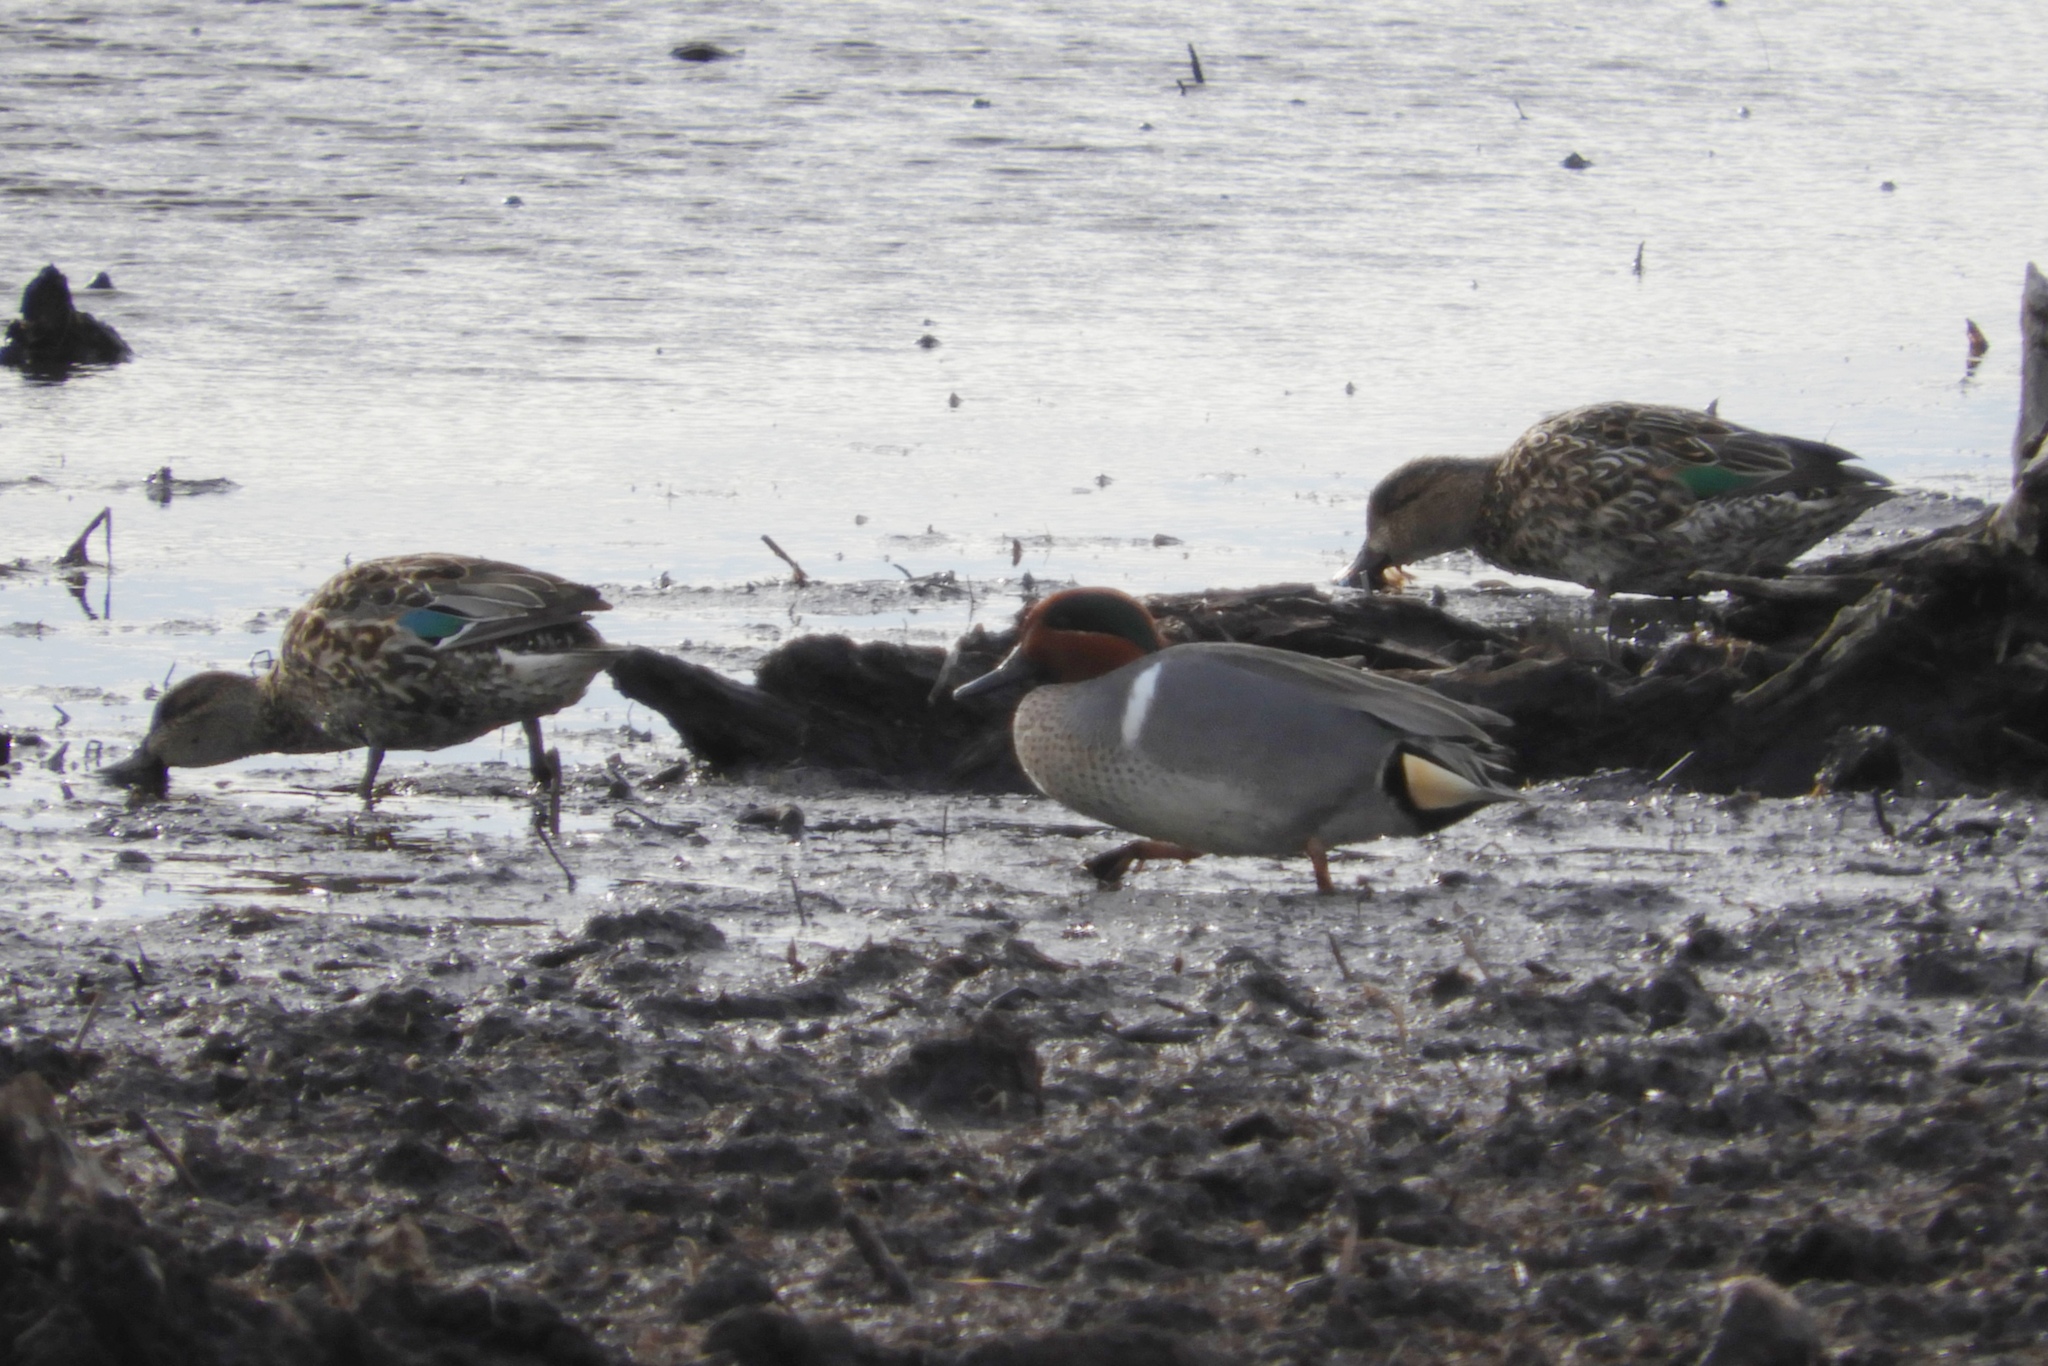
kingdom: Animalia
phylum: Chordata
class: Aves
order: Anseriformes
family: Anatidae
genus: Anas
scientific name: Anas crecca
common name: Eurasian teal
